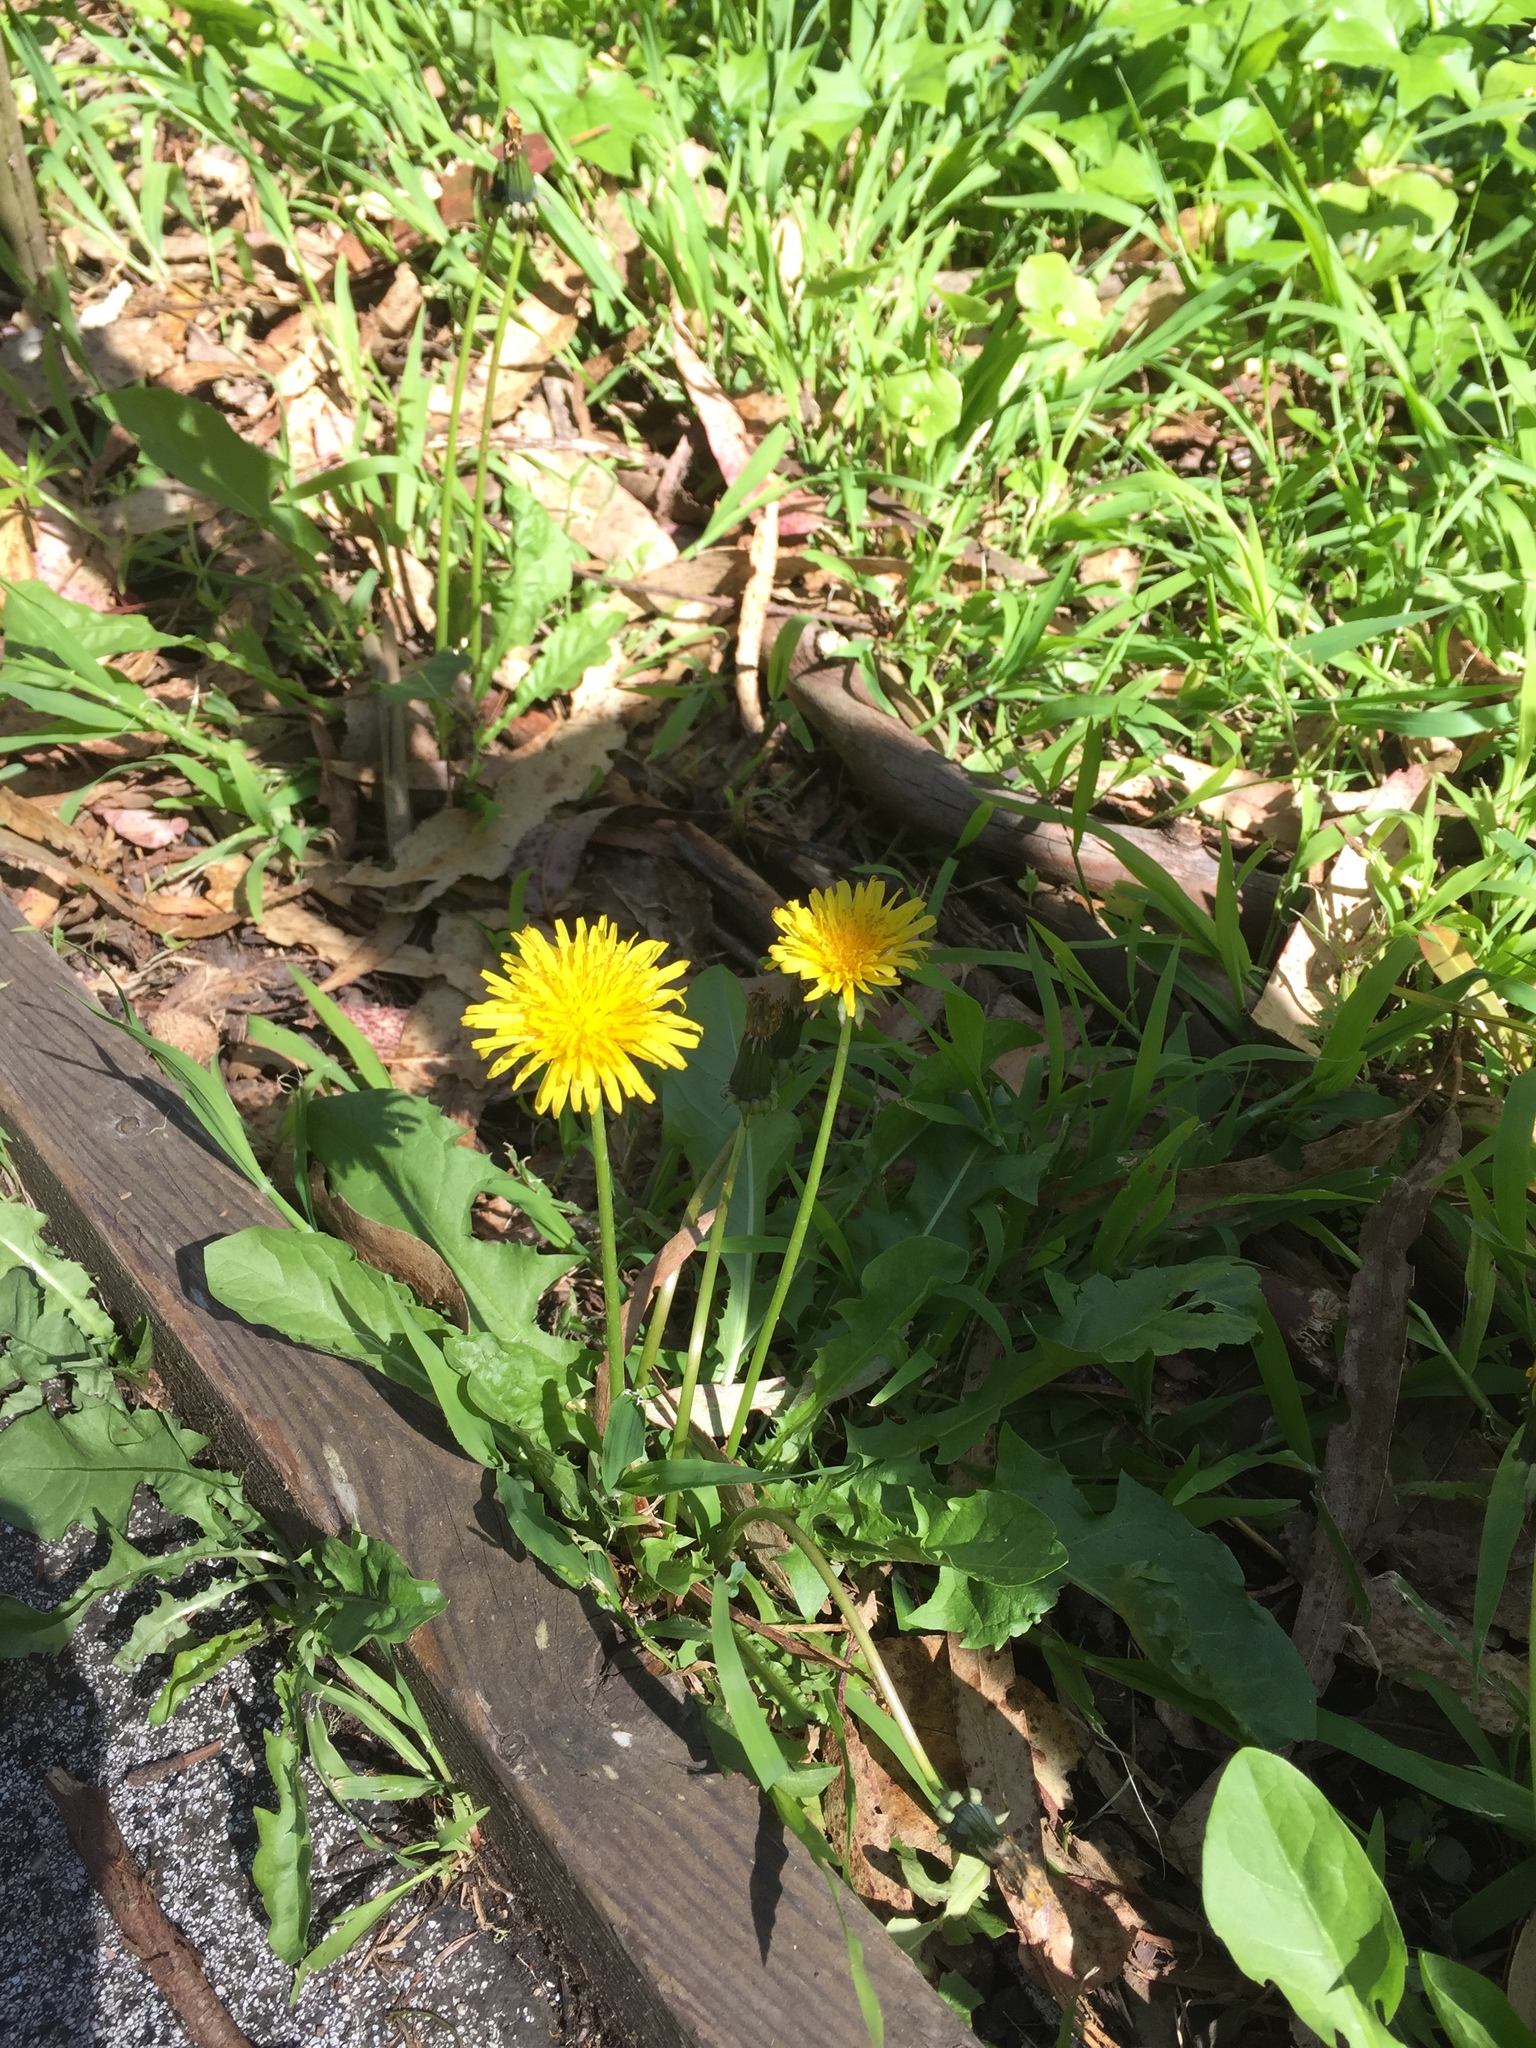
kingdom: Plantae
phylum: Tracheophyta
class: Magnoliopsida
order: Asterales
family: Asteraceae
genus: Taraxacum
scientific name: Taraxacum officinale
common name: Common dandelion
